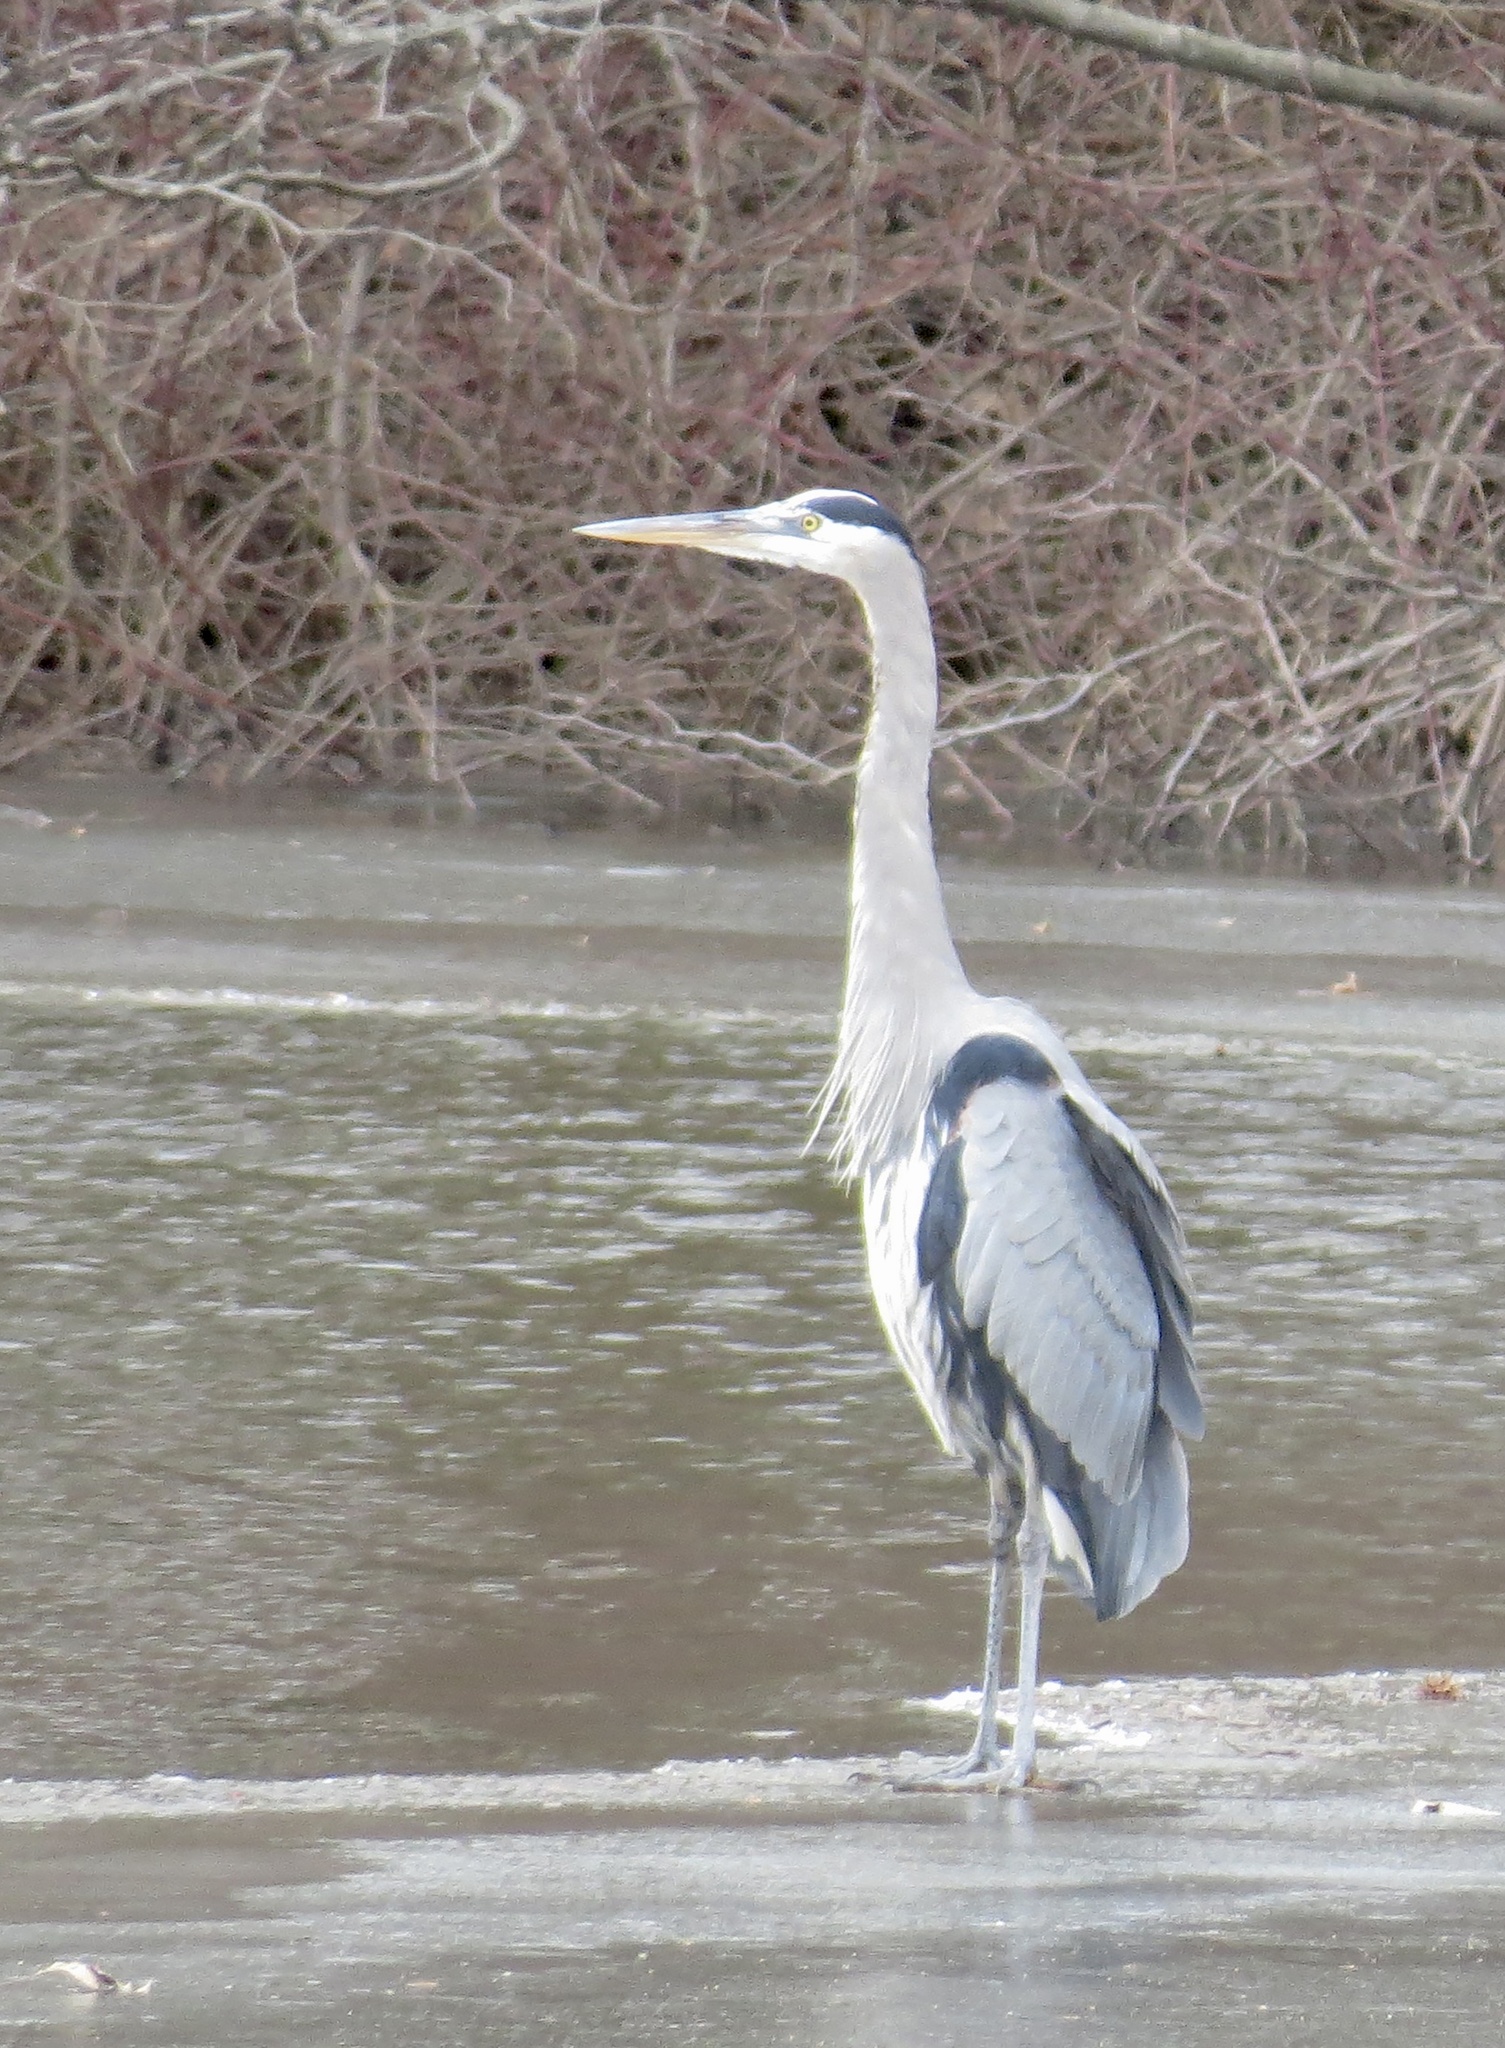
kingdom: Animalia
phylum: Chordata
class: Aves
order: Pelecaniformes
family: Ardeidae
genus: Ardea
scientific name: Ardea herodias
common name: Great blue heron
